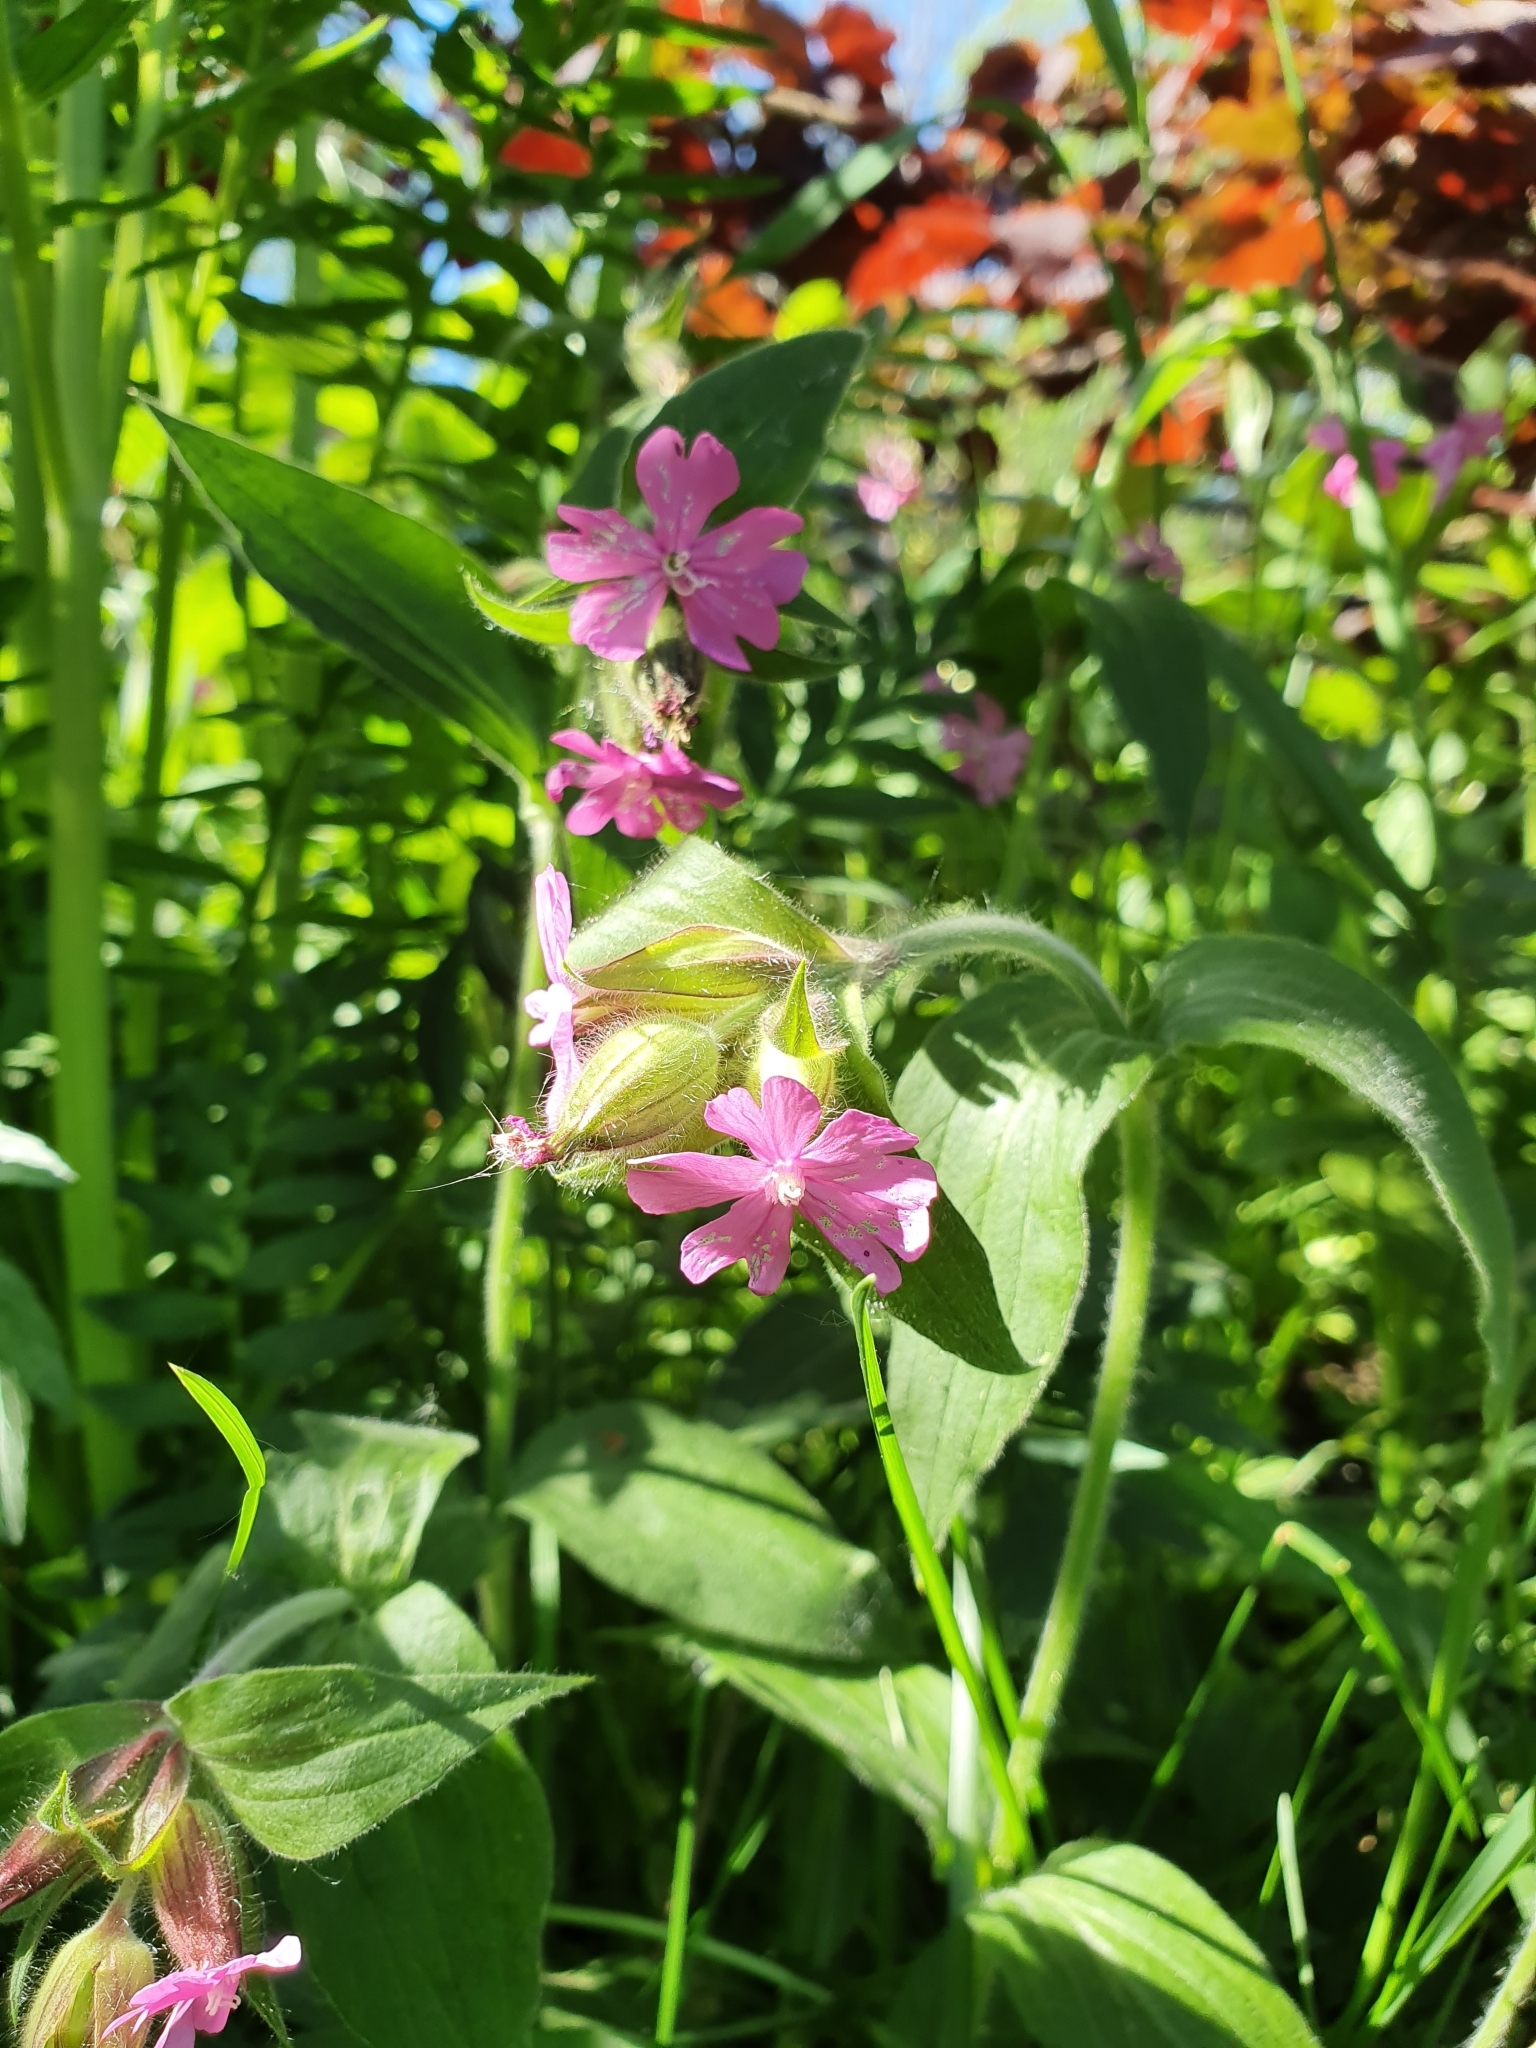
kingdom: Plantae
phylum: Tracheophyta
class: Magnoliopsida
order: Caryophyllales
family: Caryophyllaceae
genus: Silene
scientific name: Silene dioica
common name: Red campion
